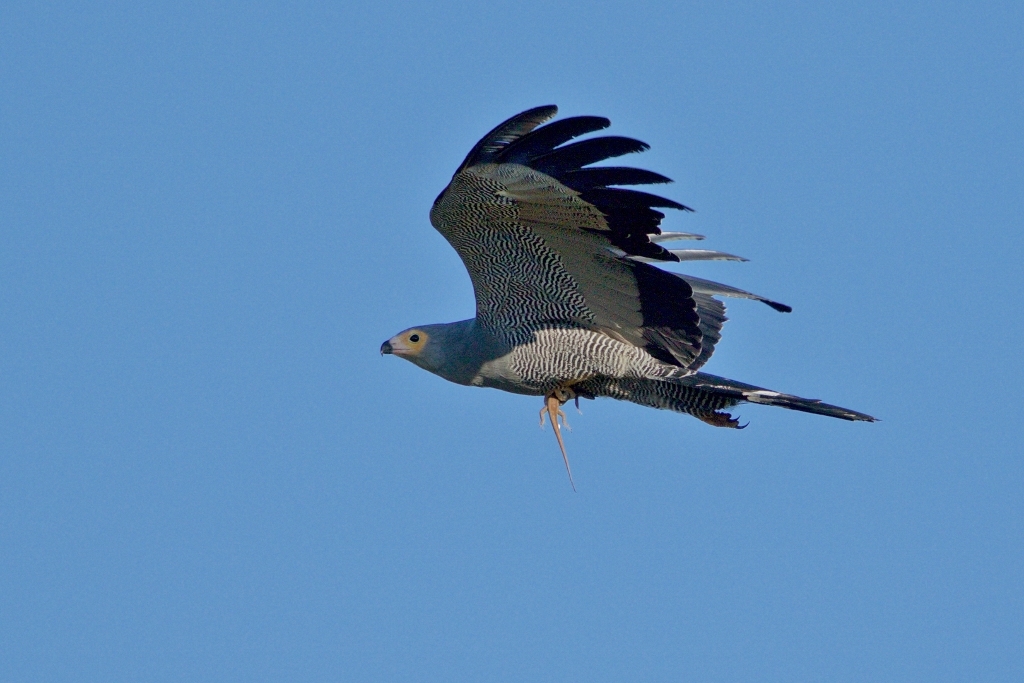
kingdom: Animalia
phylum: Chordata
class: Aves
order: Accipitriformes
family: Accipitridae
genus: Polyboroides
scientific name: Polyboroides typus
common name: African harrier-hawk
